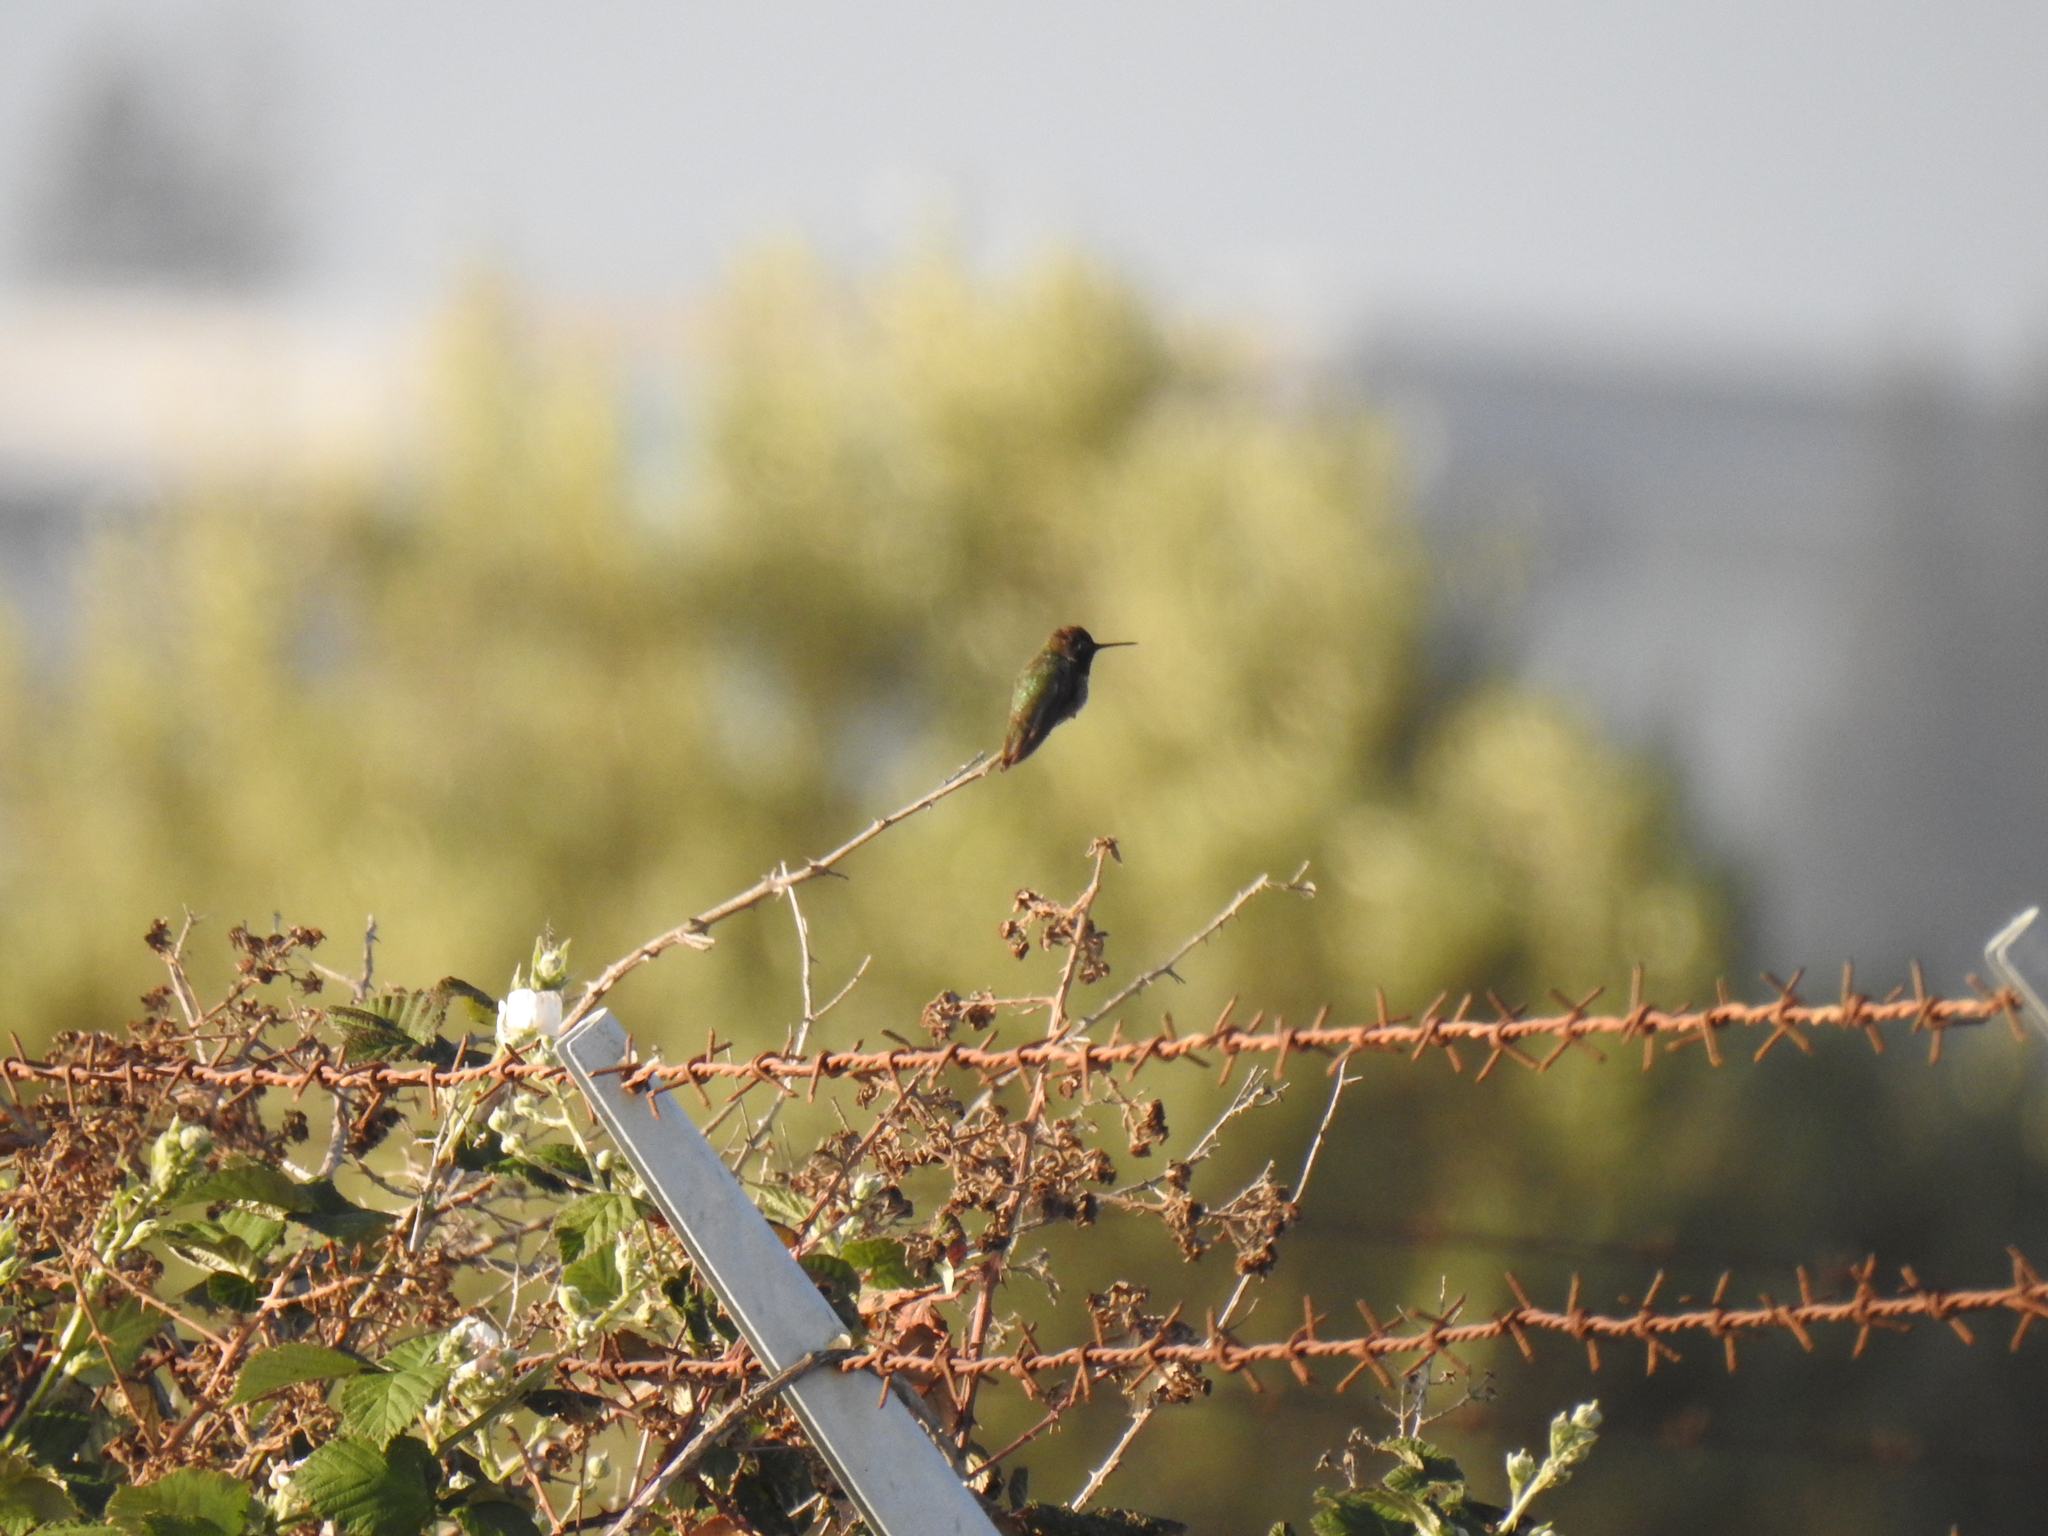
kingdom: Animalia
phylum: Chordata
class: Aves
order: Apodiformes
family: Trochilidae
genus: Calypte
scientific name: Calypte anna
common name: Anna's hummingbird
